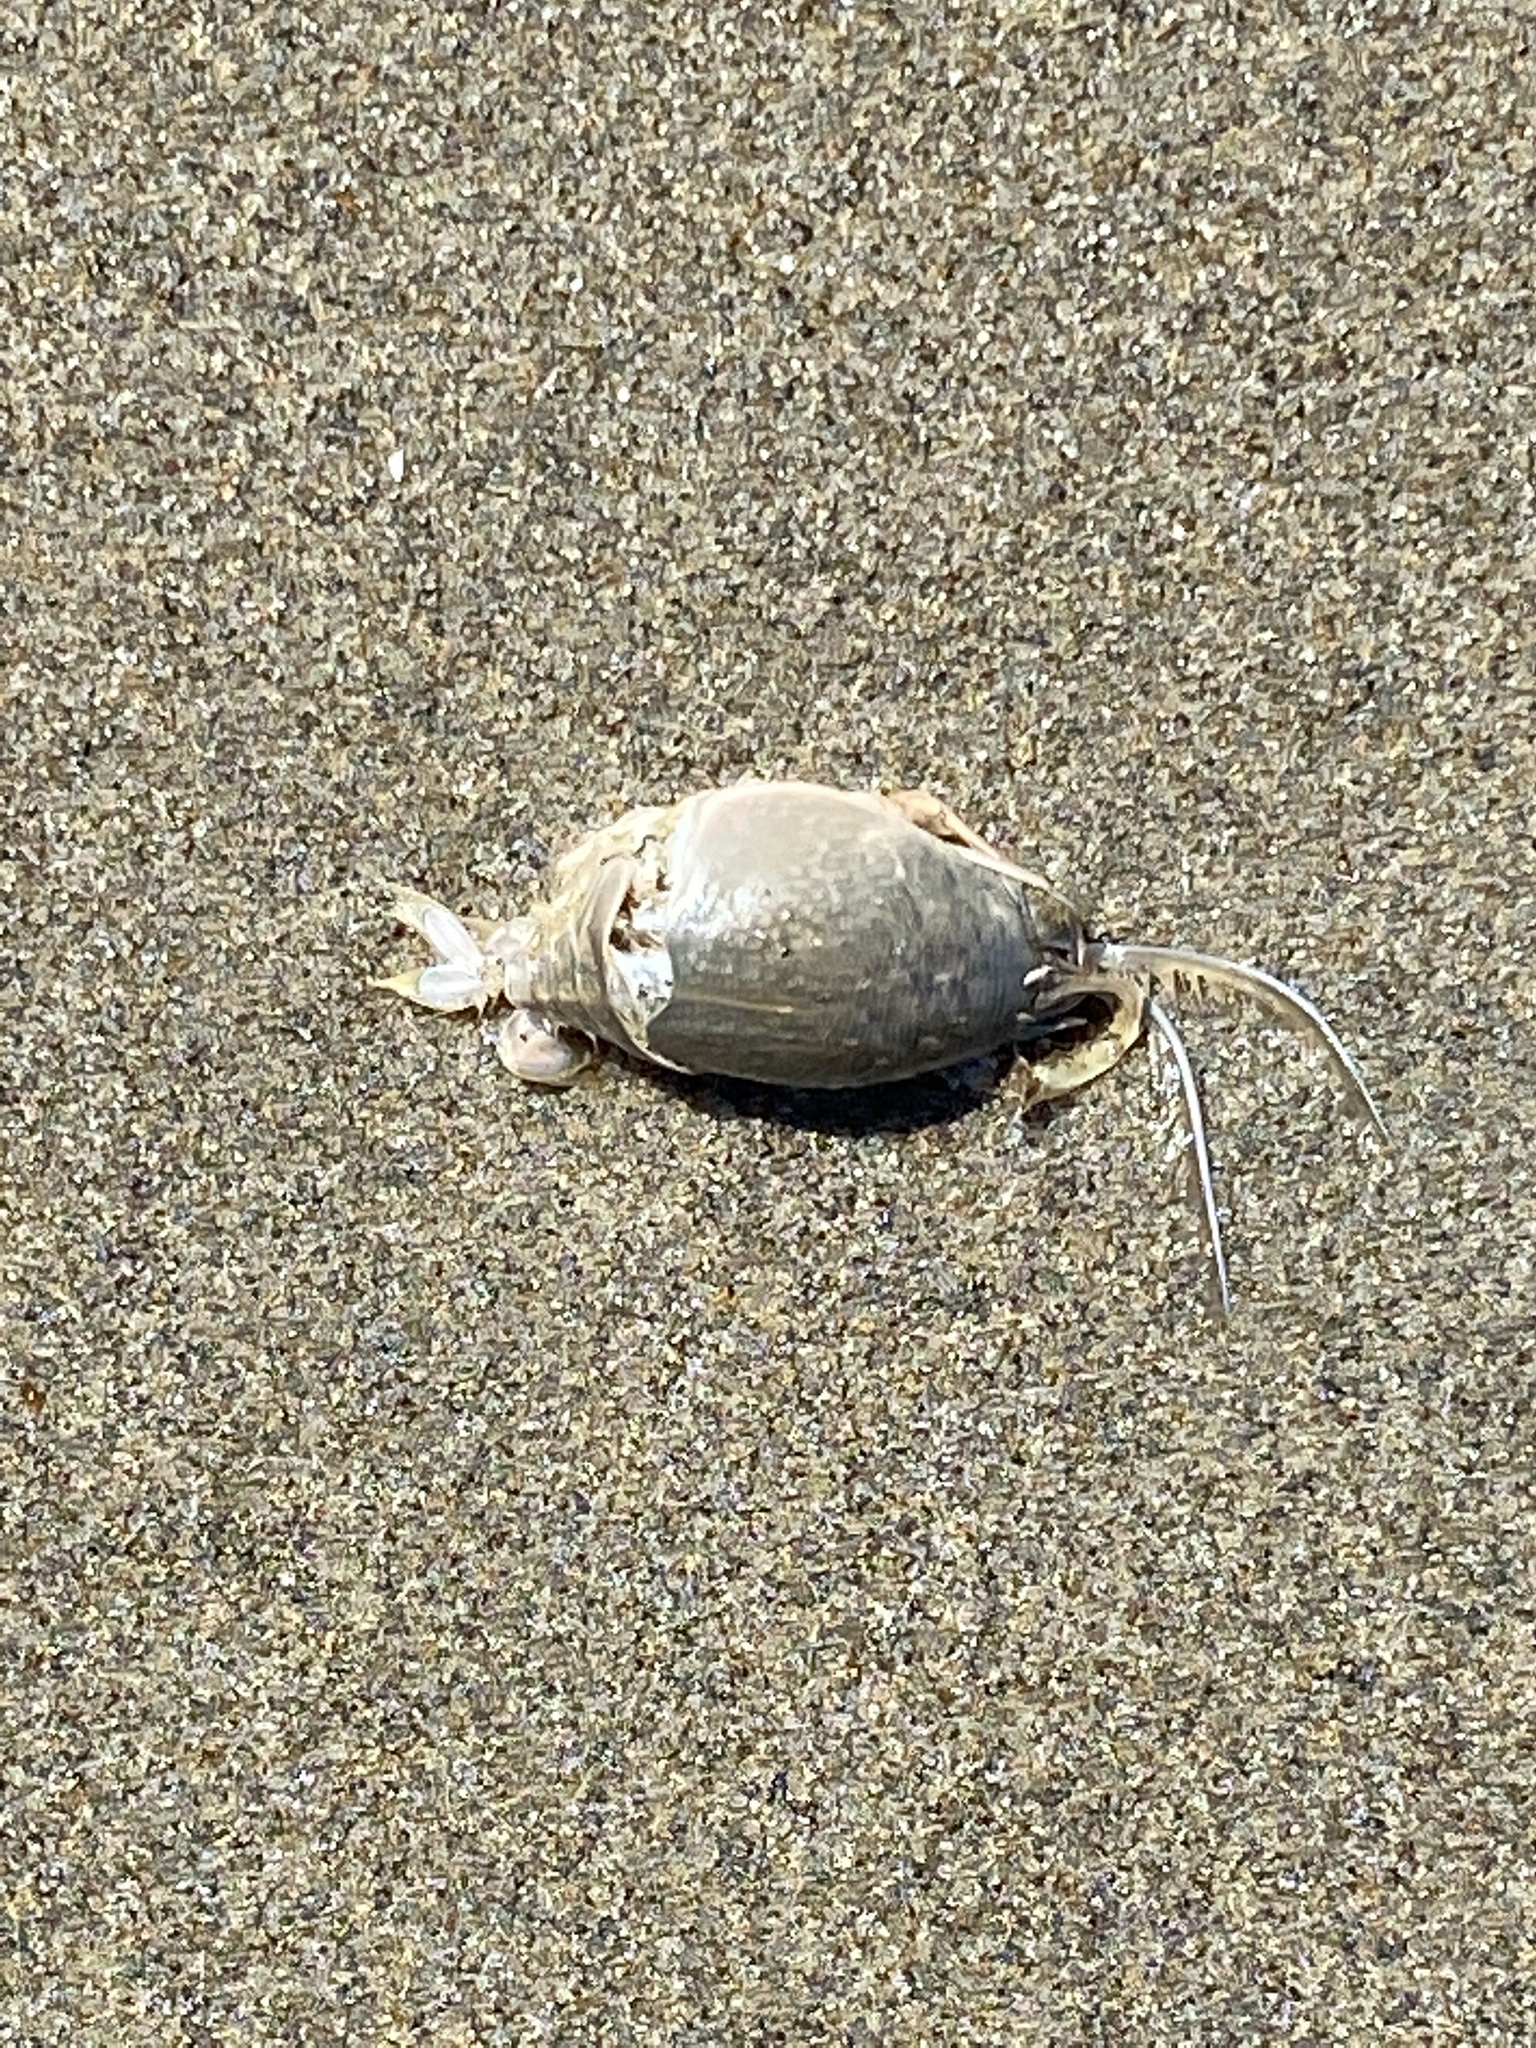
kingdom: Animalia
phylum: Arthropoda
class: Malacostraca
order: Decapoda
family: Hippidae
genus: Emerita
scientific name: Emerita analoga
